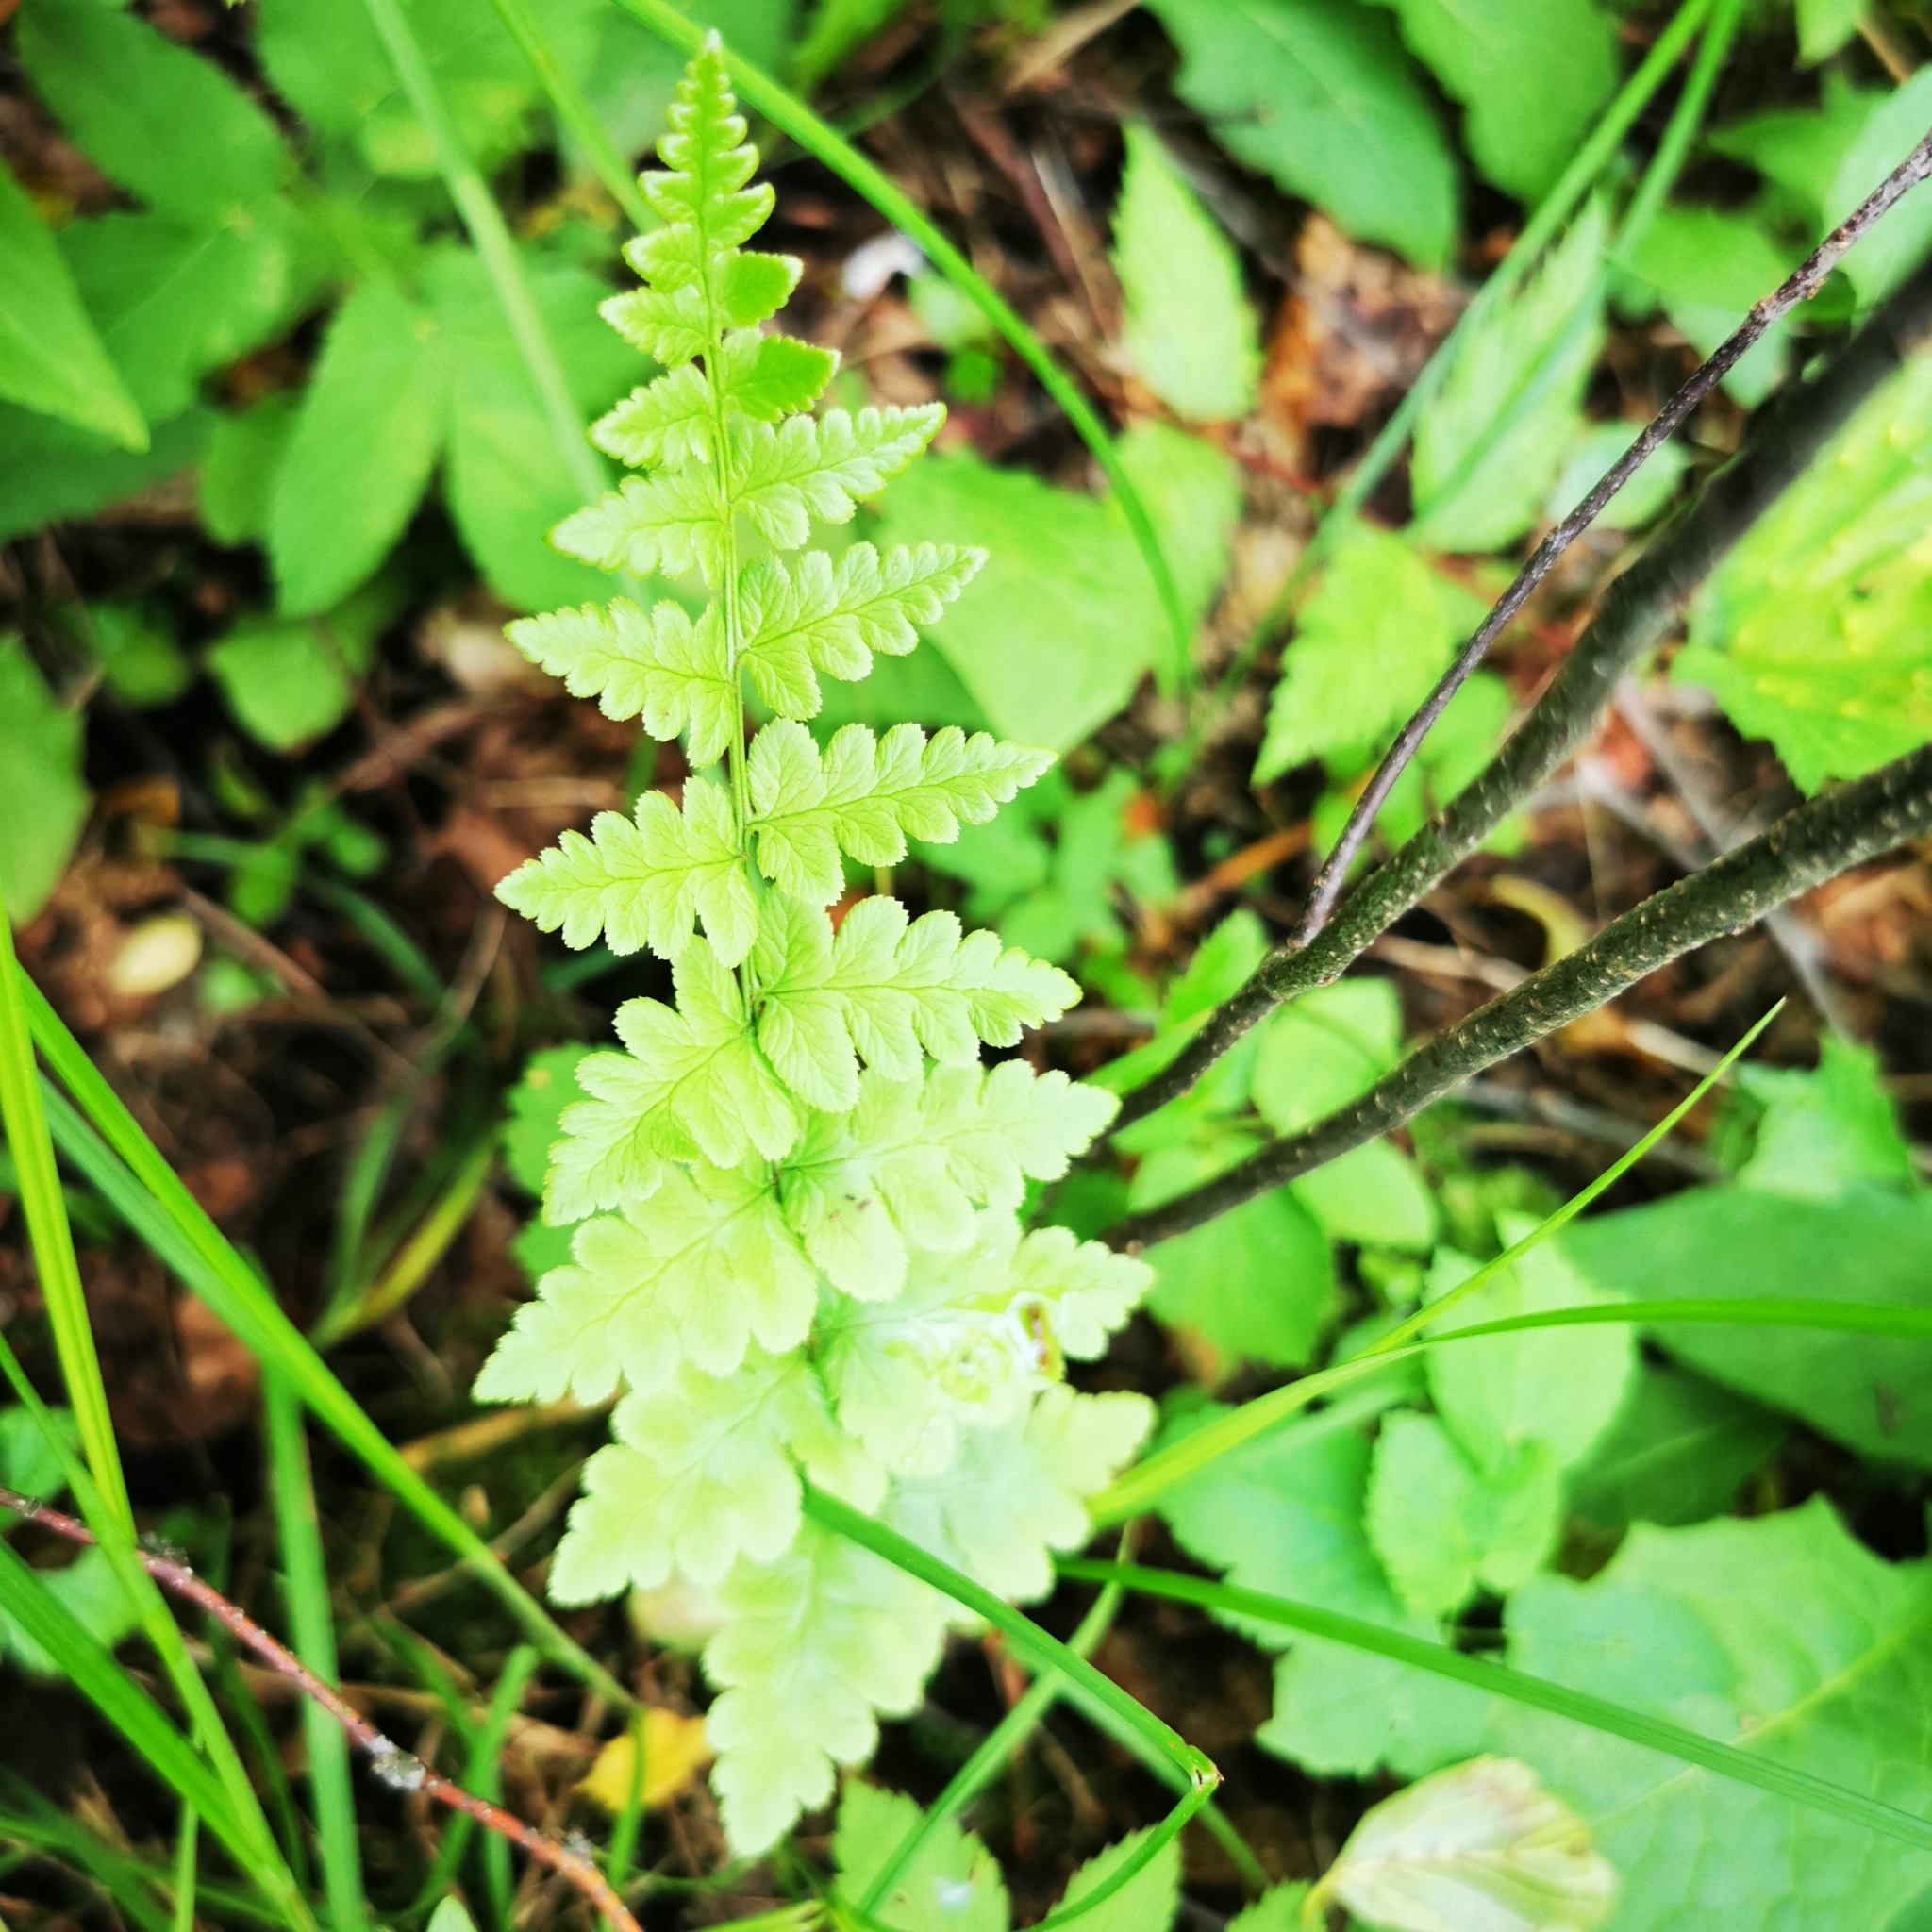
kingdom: Plantae
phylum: Tracheophyta
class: Polypodiopsida
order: Polypodiales
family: Dryopteridaceae
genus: Dryopteris
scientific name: Dryopteris cristata
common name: Crested wood fern
